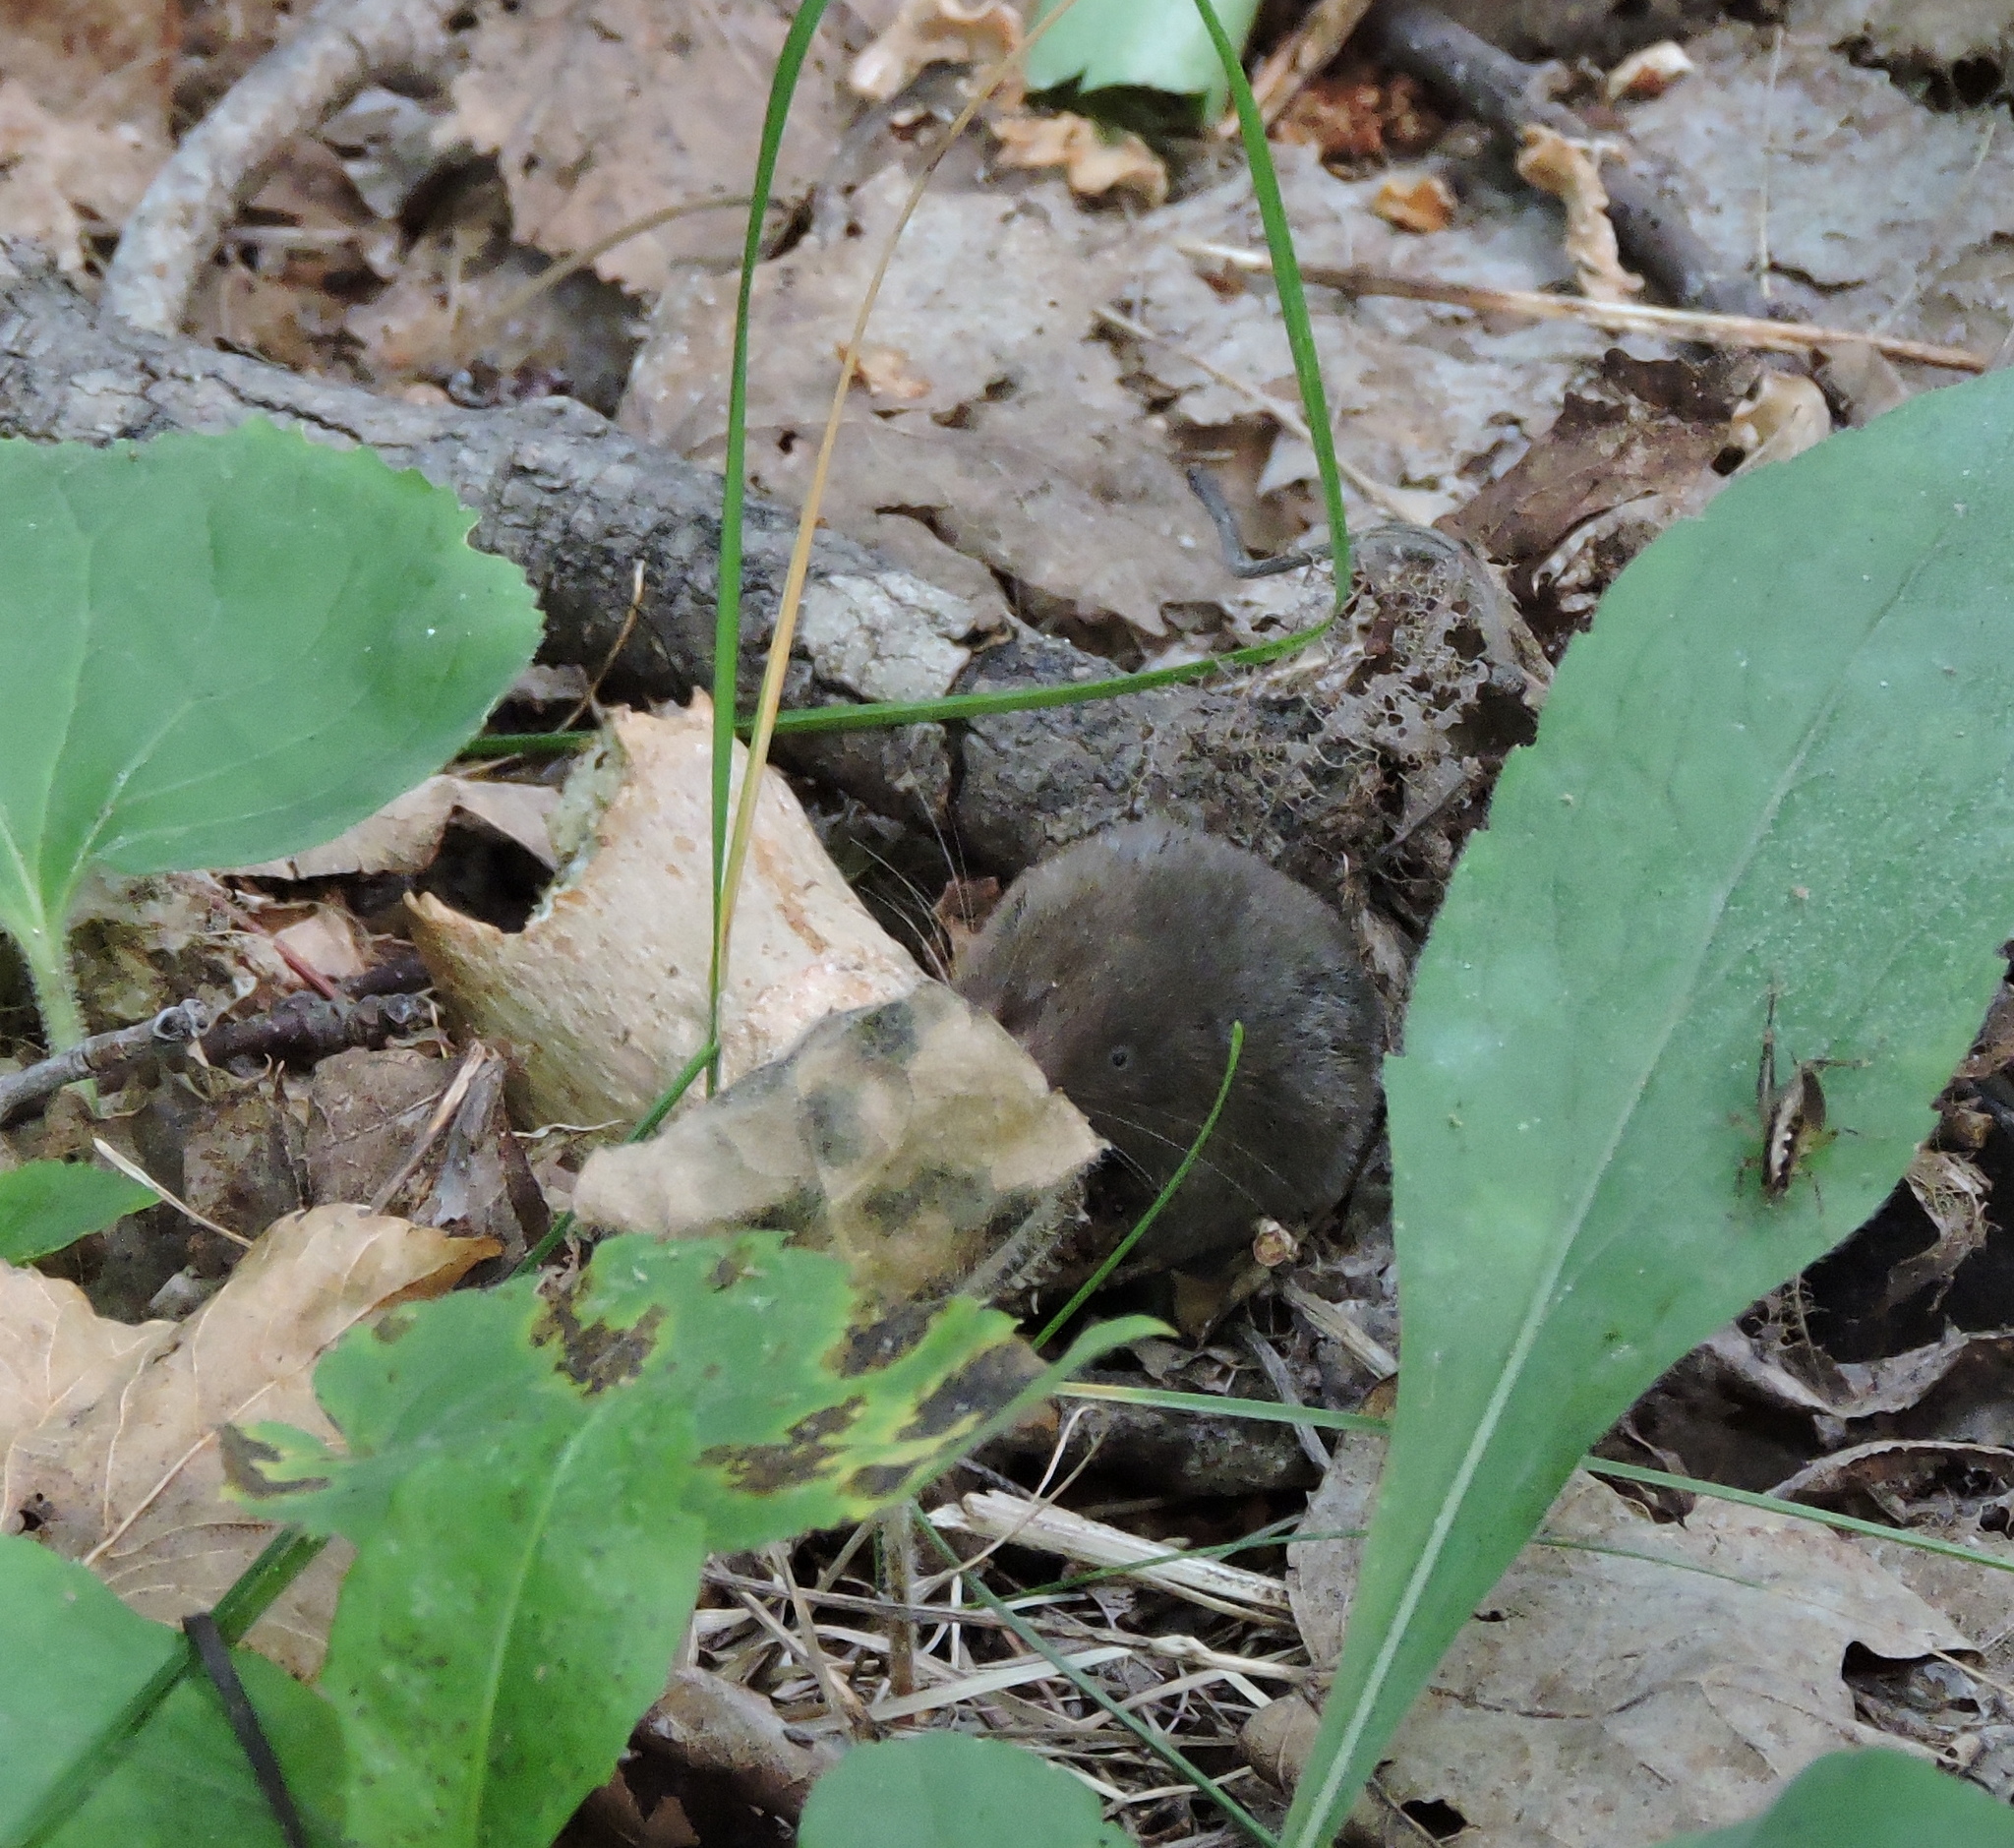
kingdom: Animalia
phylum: Chordata
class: Mammalia
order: Soricomorpha
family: Soricidae
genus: Blarina
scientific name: Blarina brevicauda
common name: Northern short-tailed shrew
